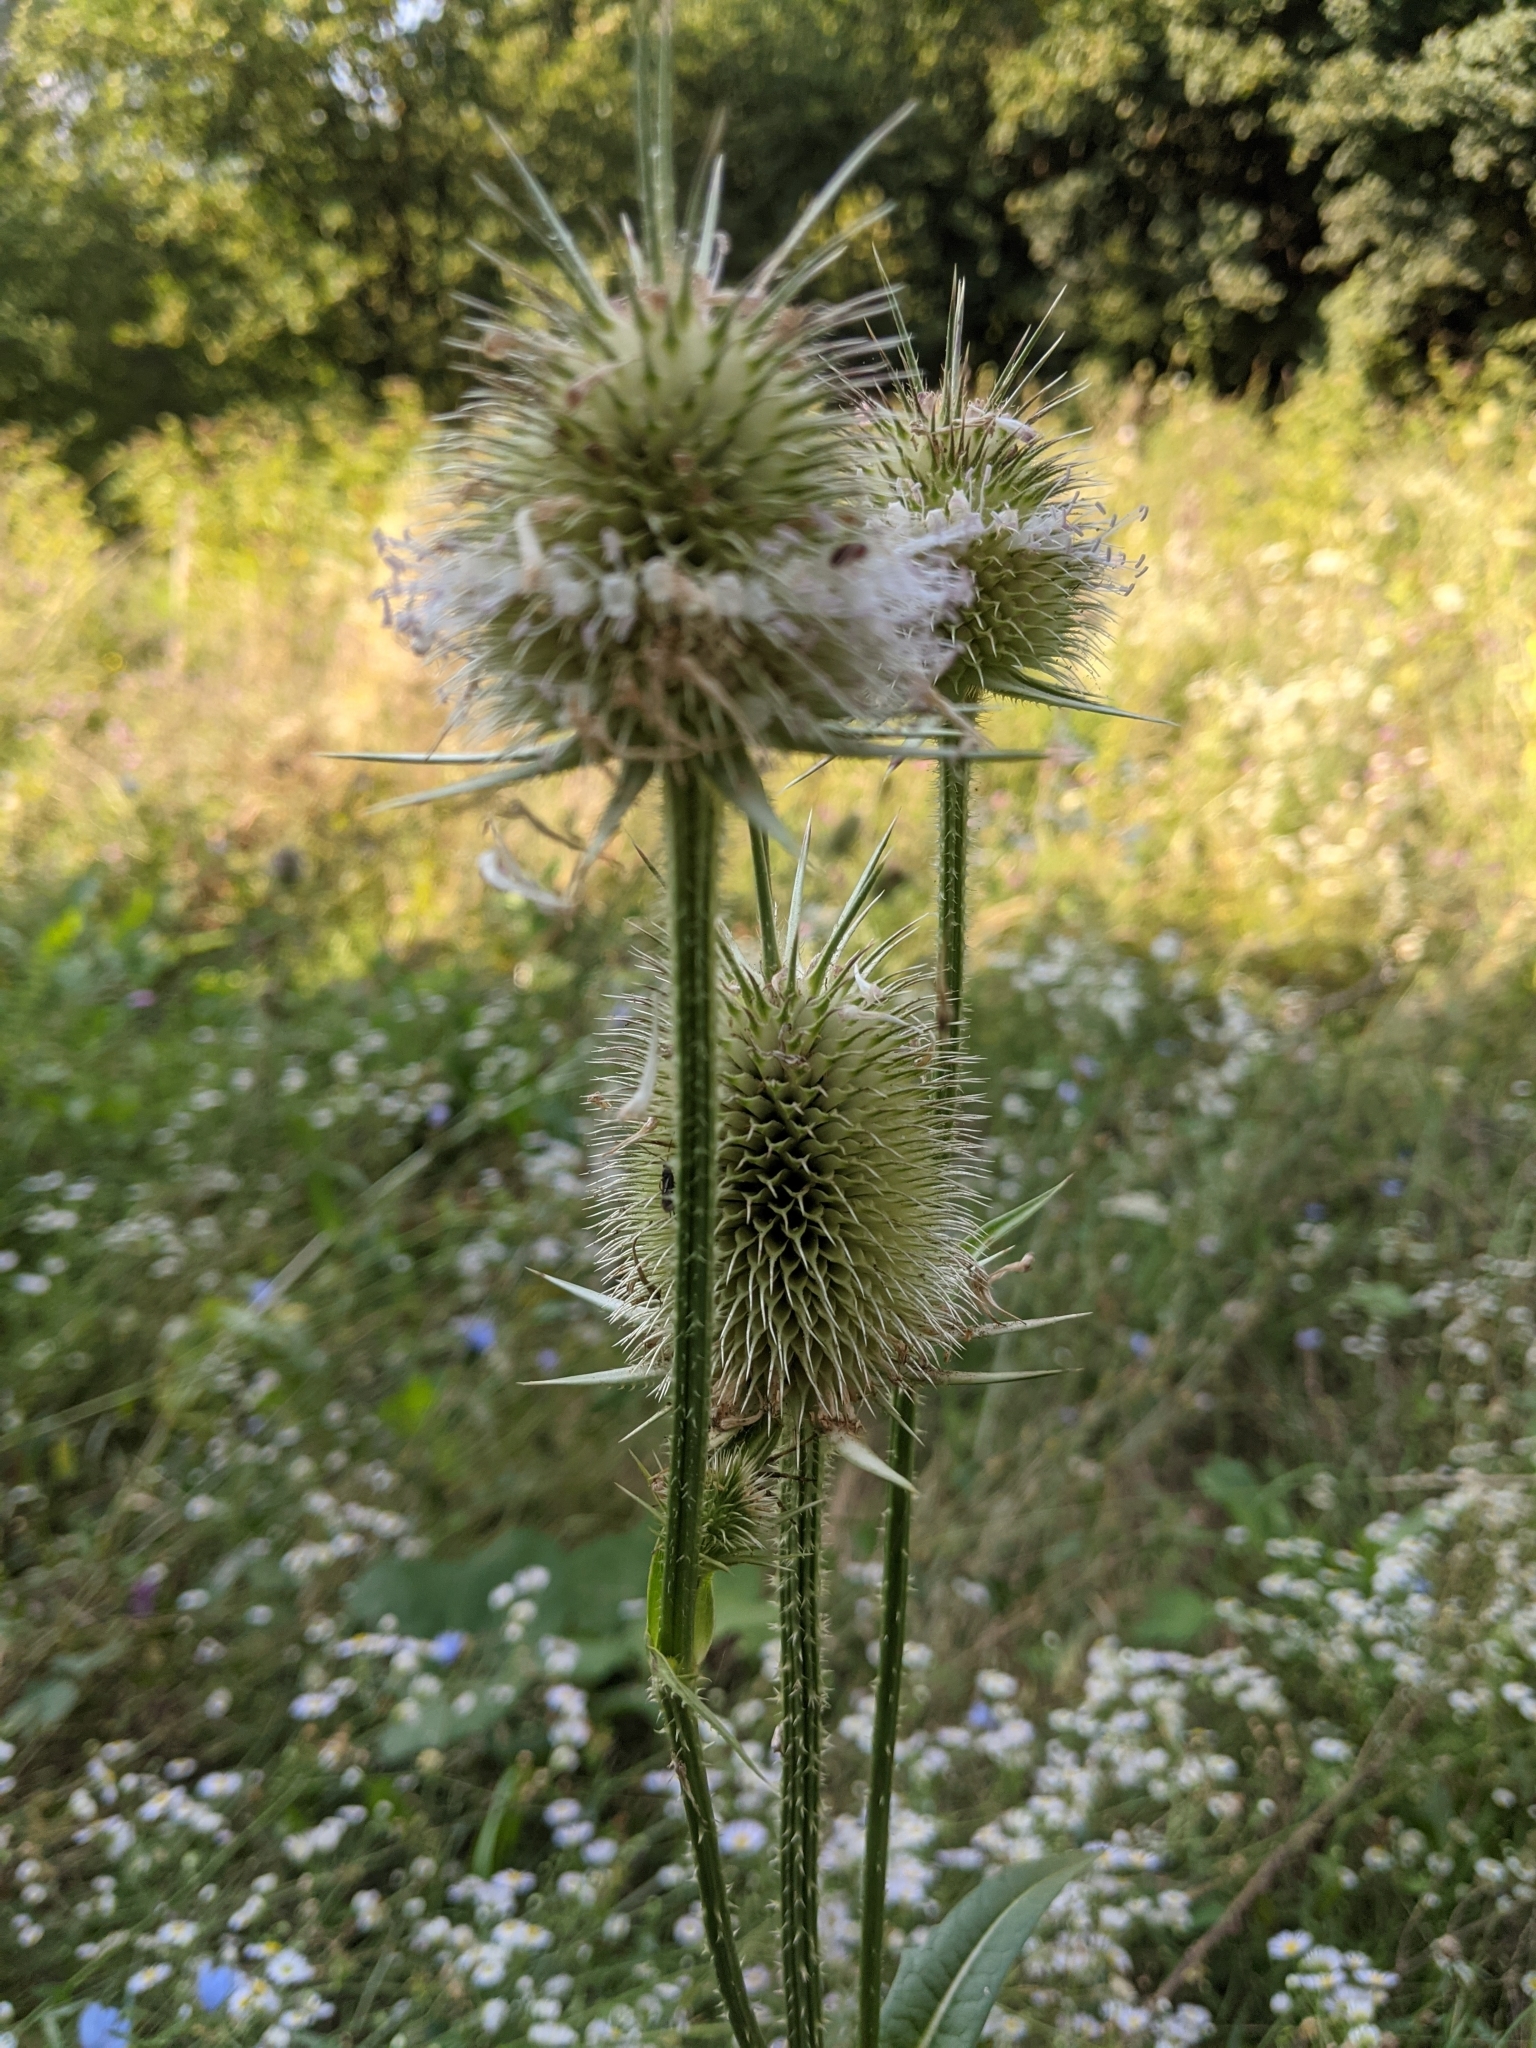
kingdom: Plantae
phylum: Tracheophyta
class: Magnoliopsida
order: Dipsacales
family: Caprifoliaceae
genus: Dipsacus
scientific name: Dipsacus laciniatus
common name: Cut-leaved teasel
